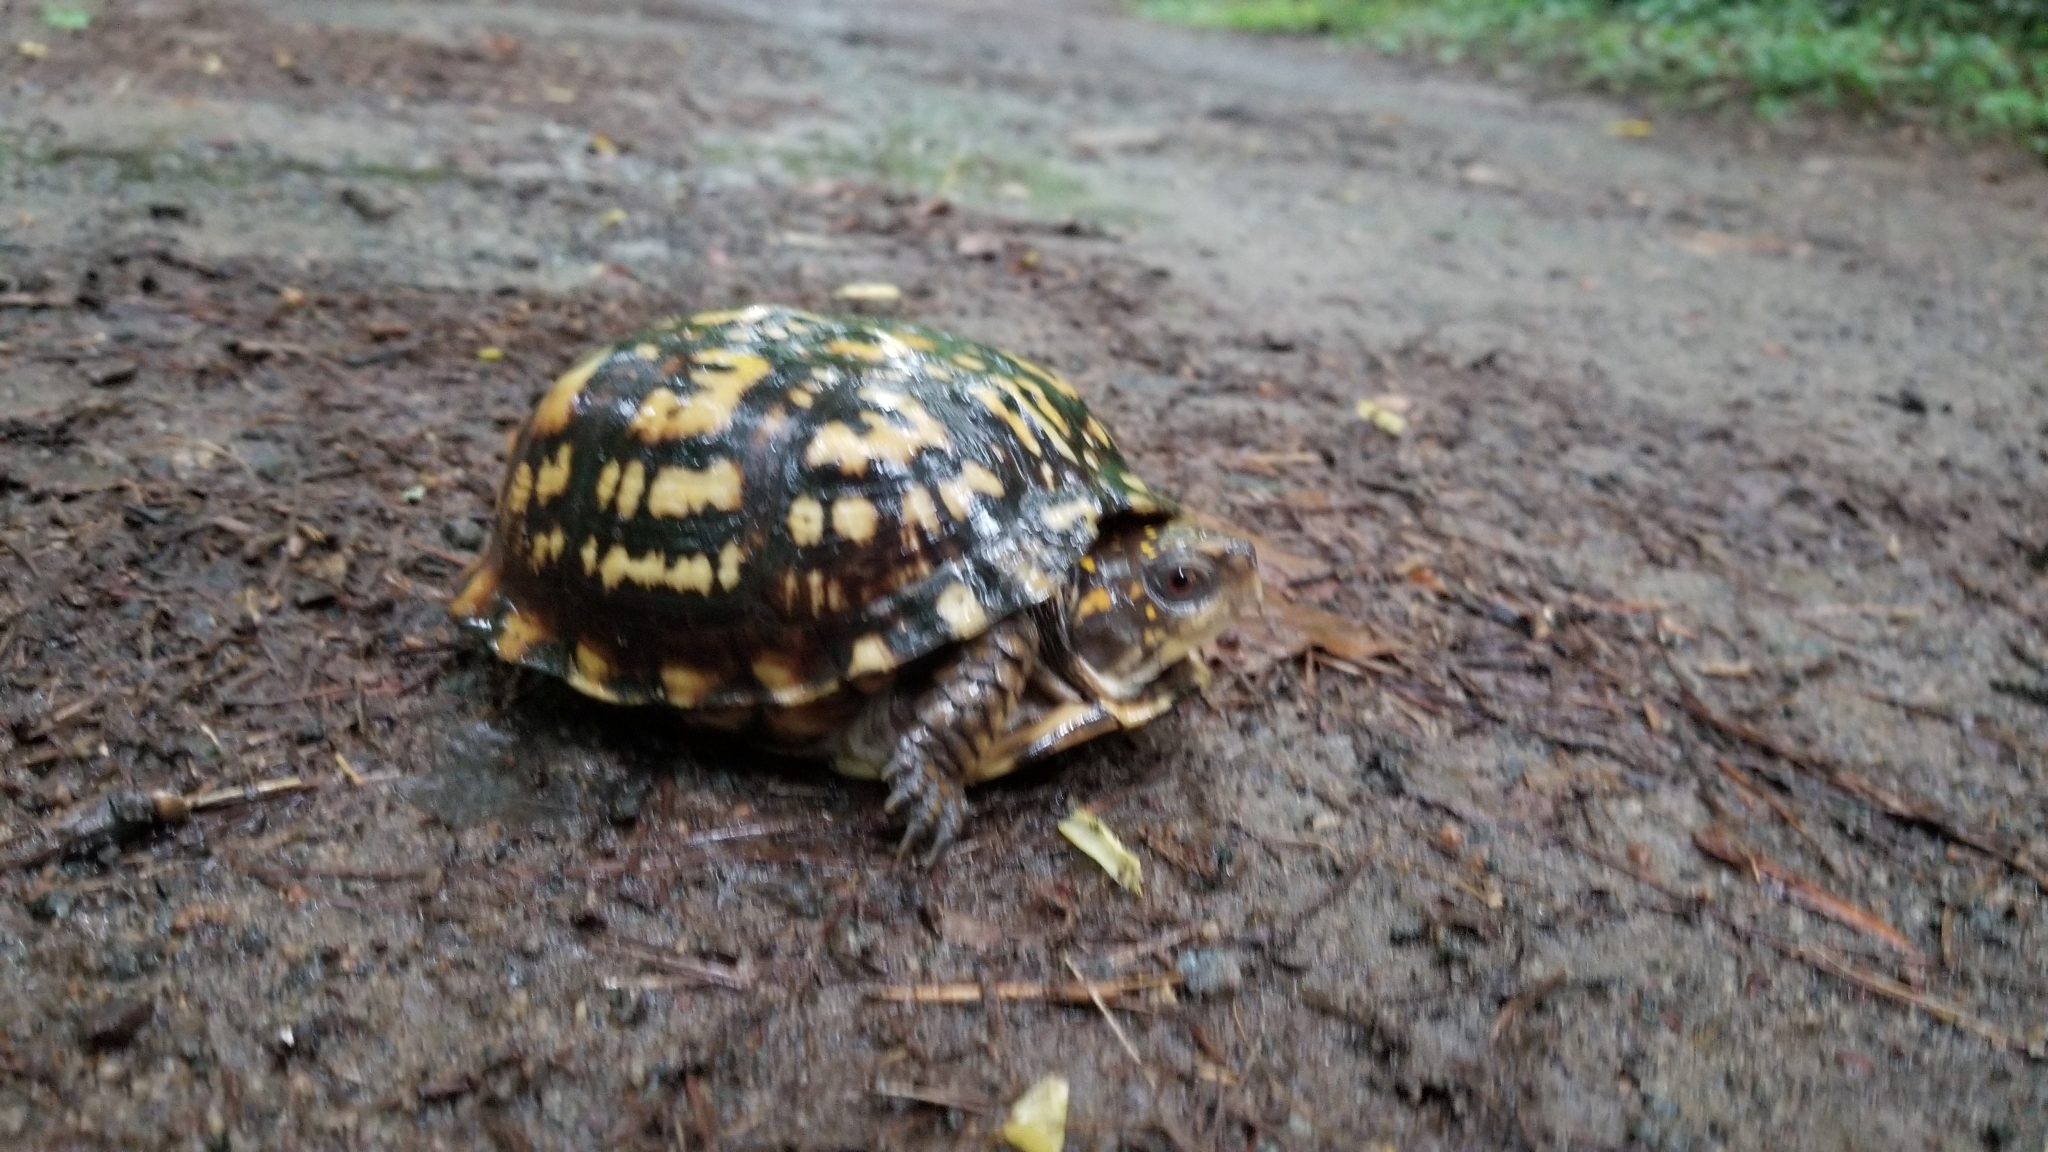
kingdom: Animalia
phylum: Chordata
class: Testudines
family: Emydidae
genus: Terrapene
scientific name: Terrapene carolina
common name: Common box turtle
